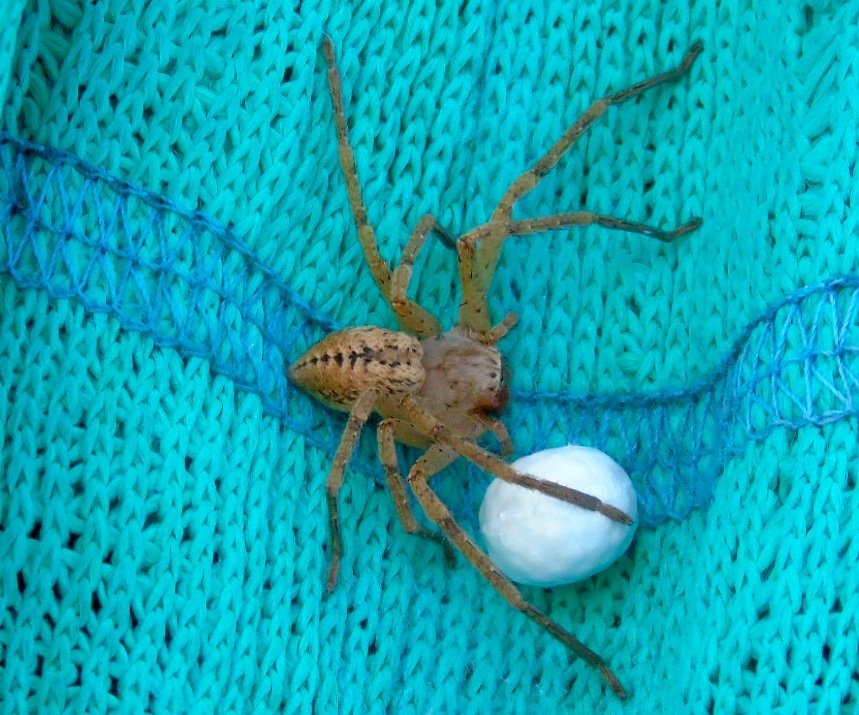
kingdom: Animalia
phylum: Arthropoda
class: Arachnida
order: Araneae
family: Sparassidae
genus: Curicaberis
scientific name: Curicaberis culiacan
